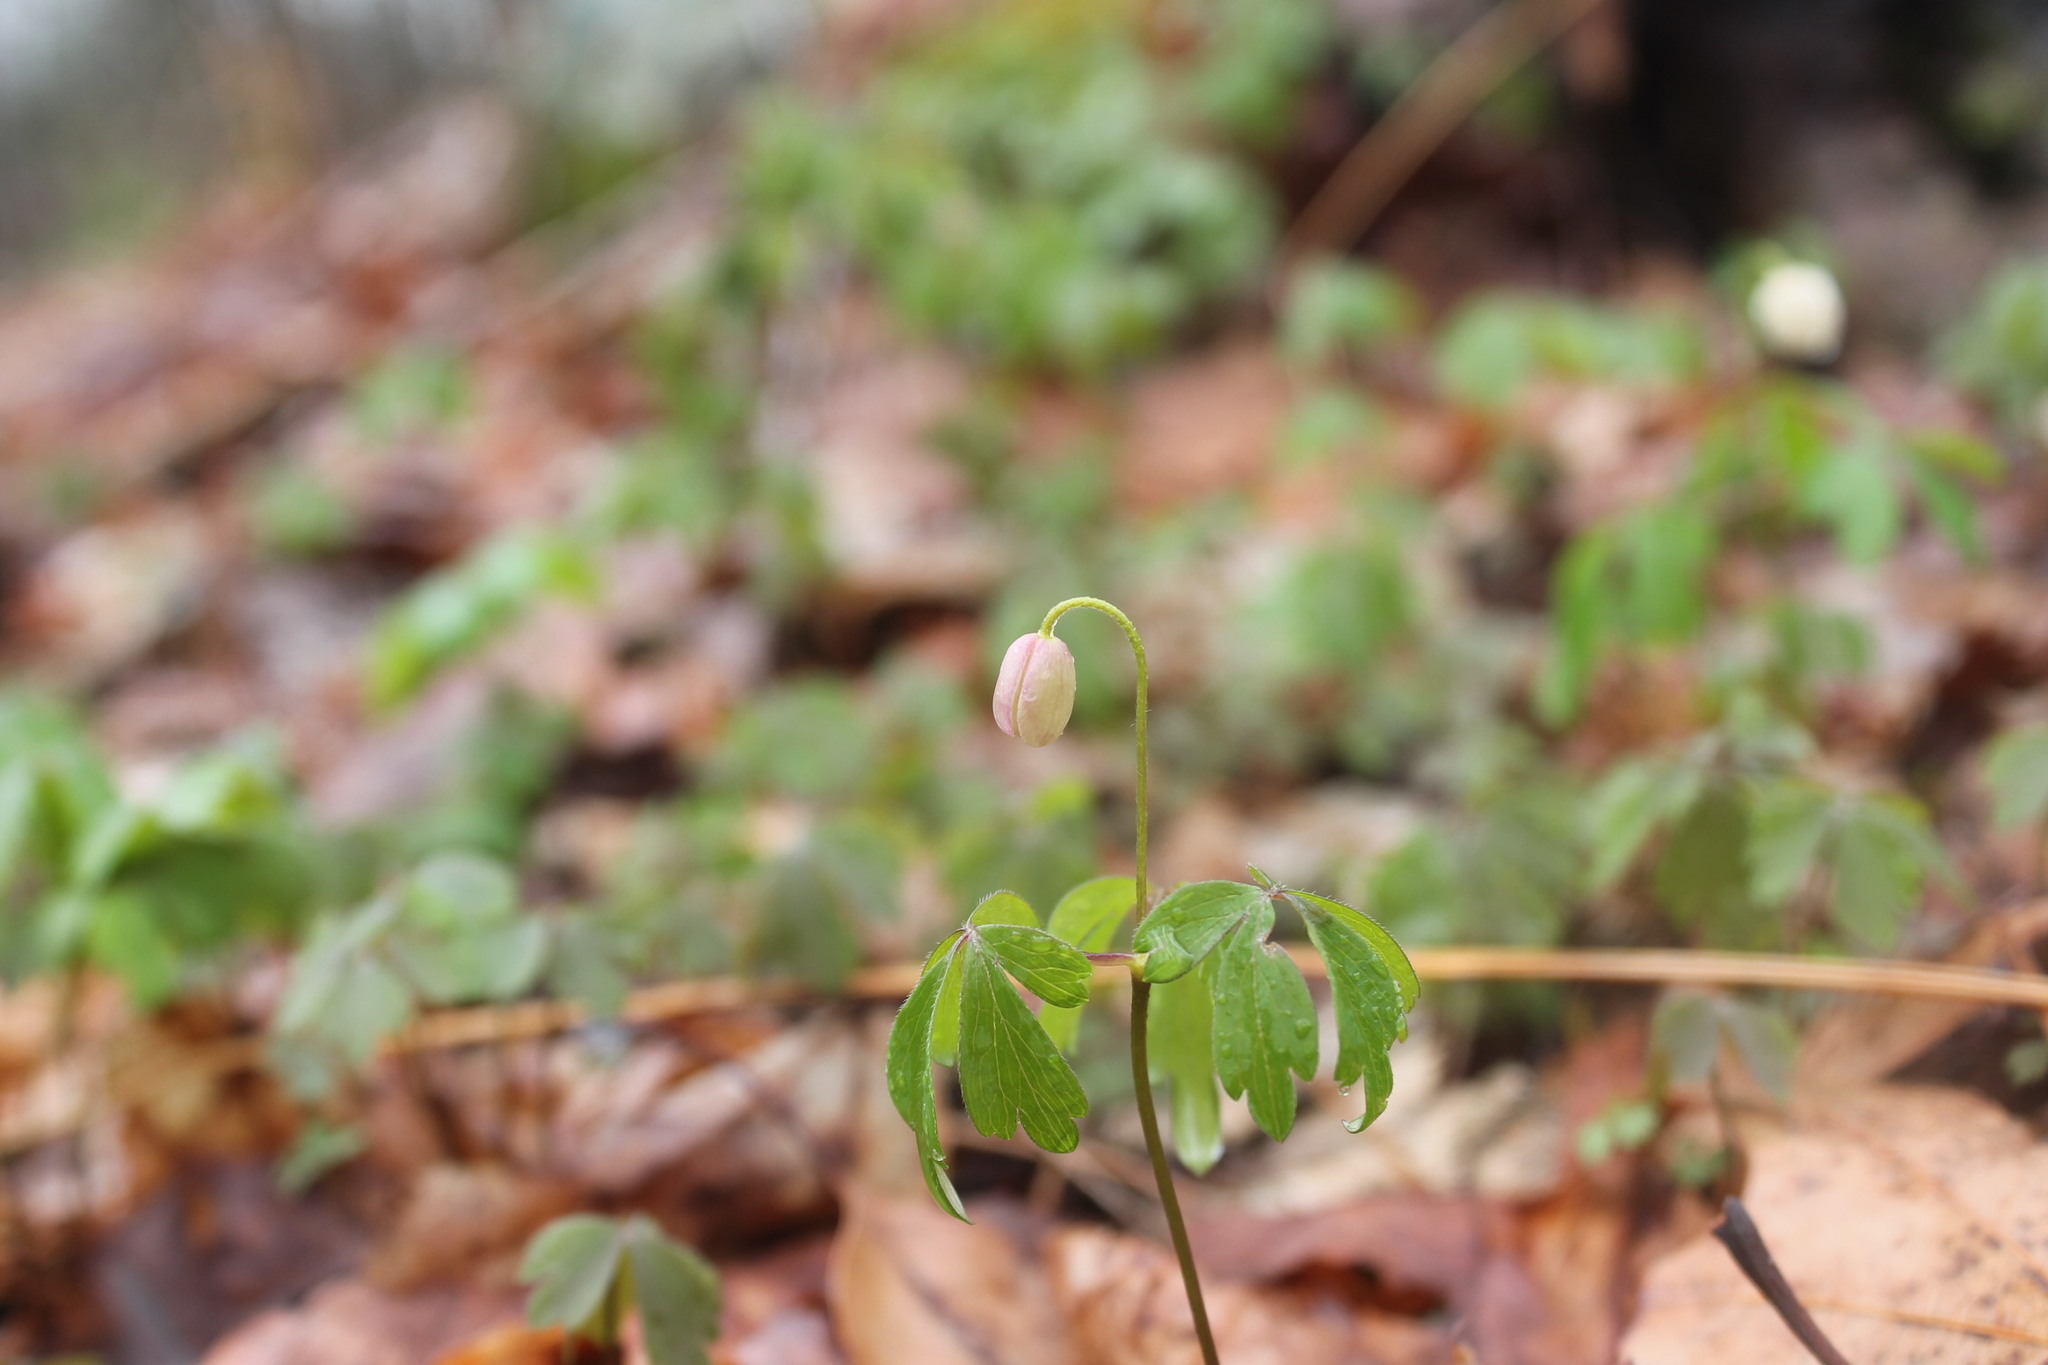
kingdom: Plantae
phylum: Tracheophyta
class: Magnoliopsida
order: Ranunculales
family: Ranunculaceae
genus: Anemone
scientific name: Anemone quinquefolia
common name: Wood anemone
